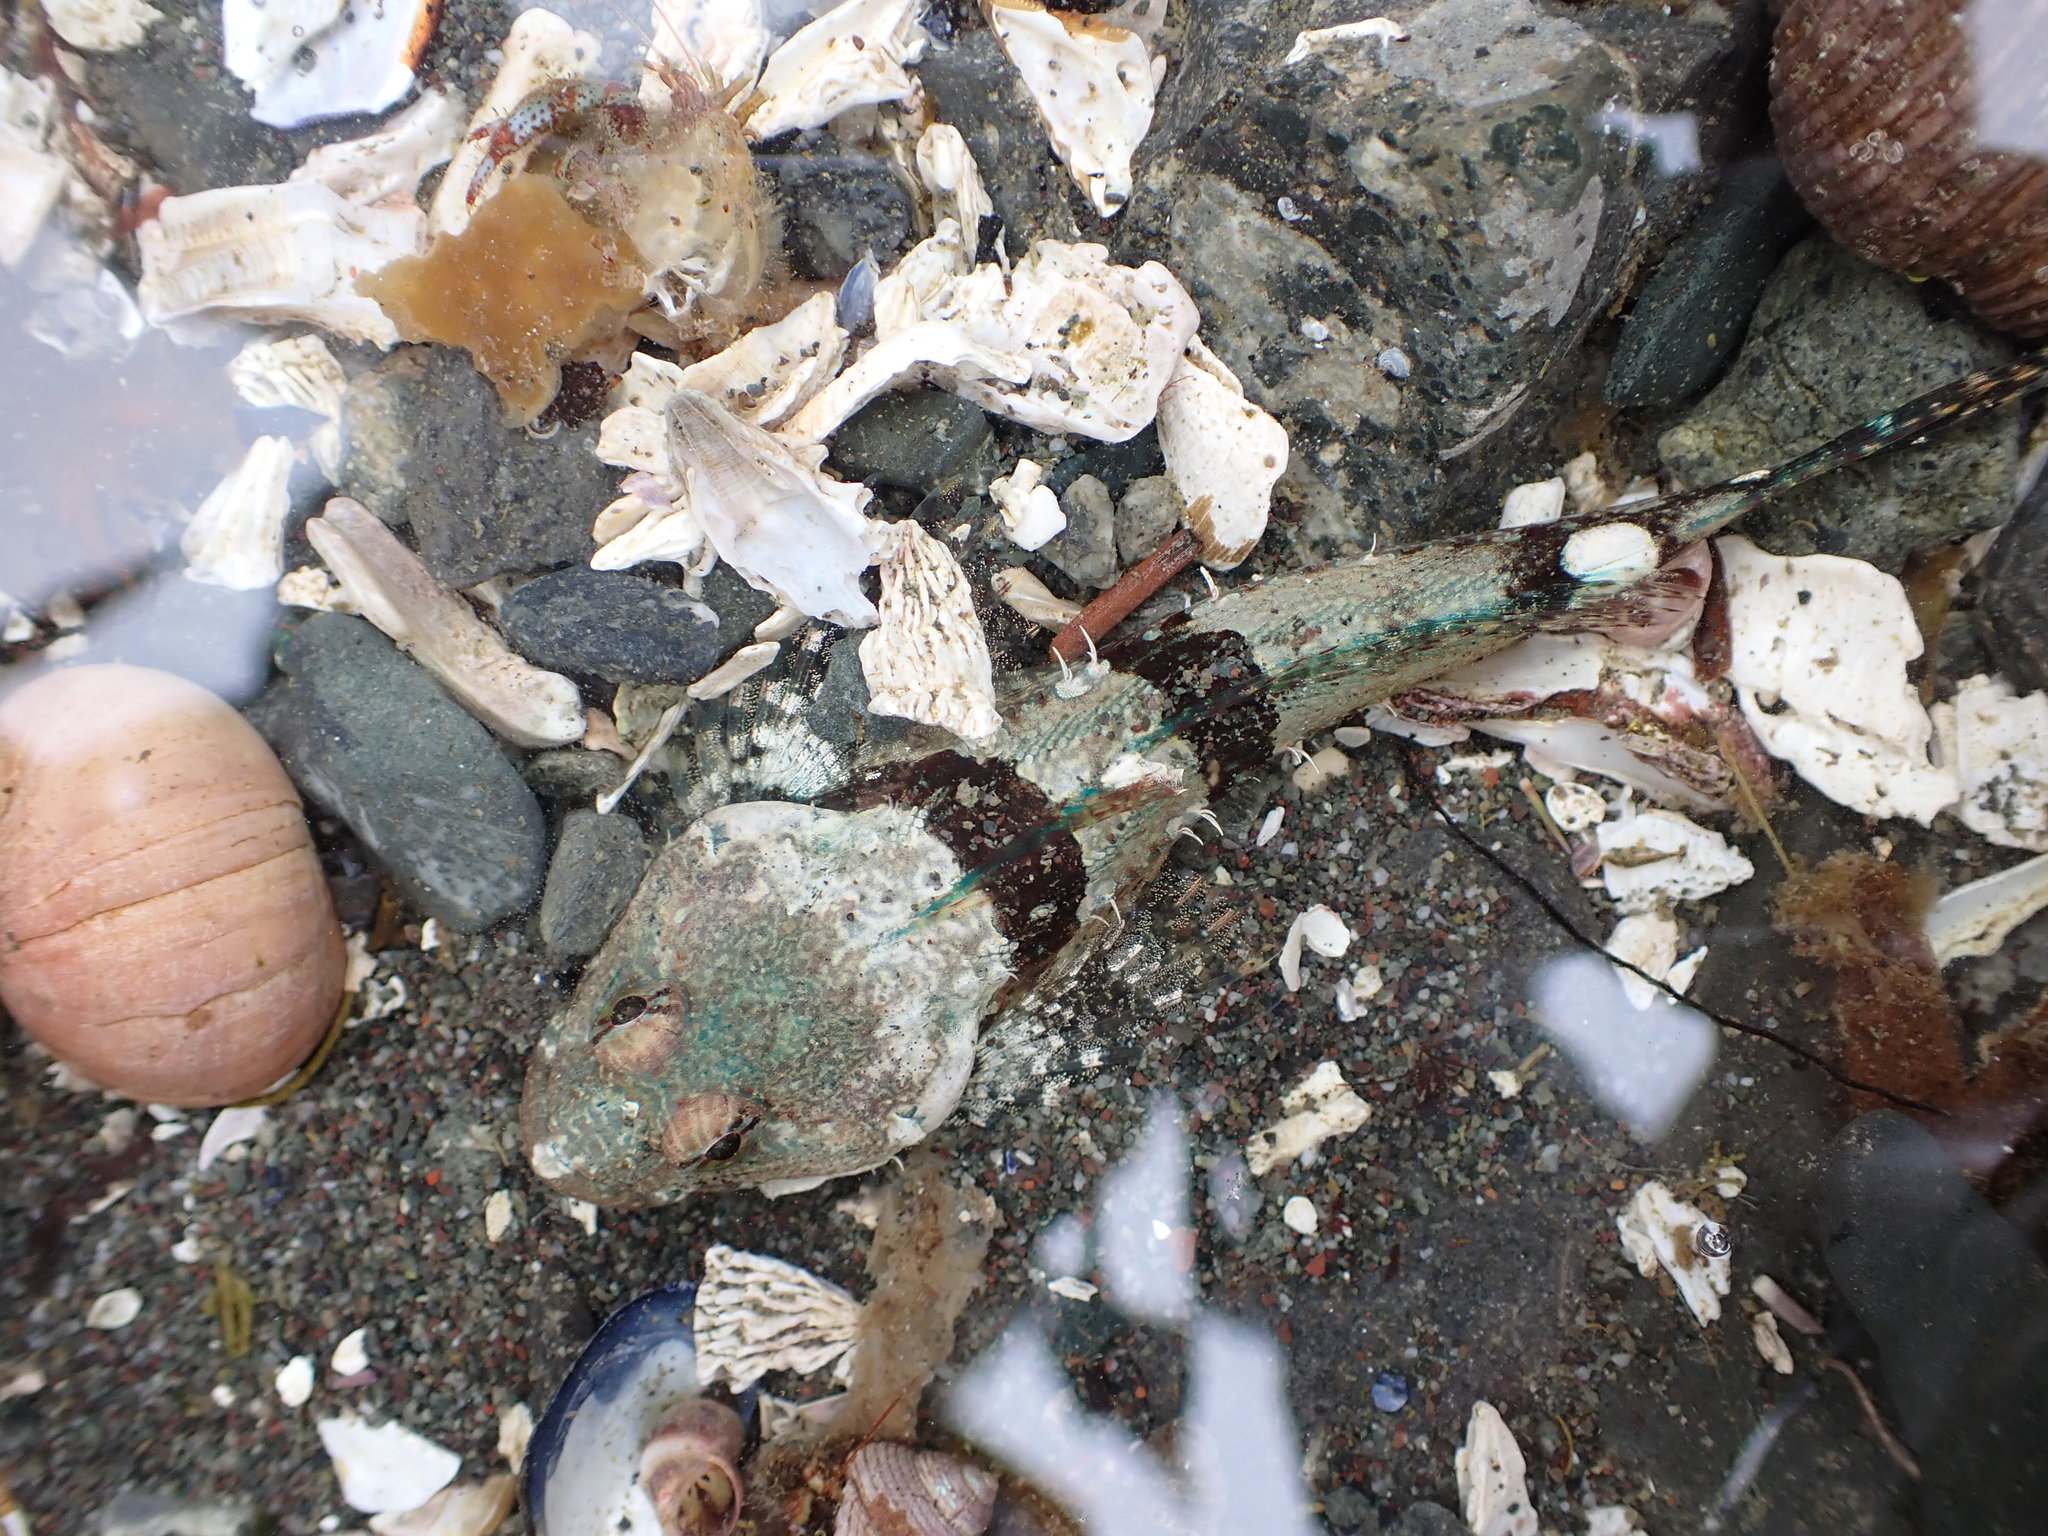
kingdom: Animalia
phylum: Chordata
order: Scorpaeniformes
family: Cottidae
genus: Artedius
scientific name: Artedius lateralis
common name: Smooth-head sculpin
